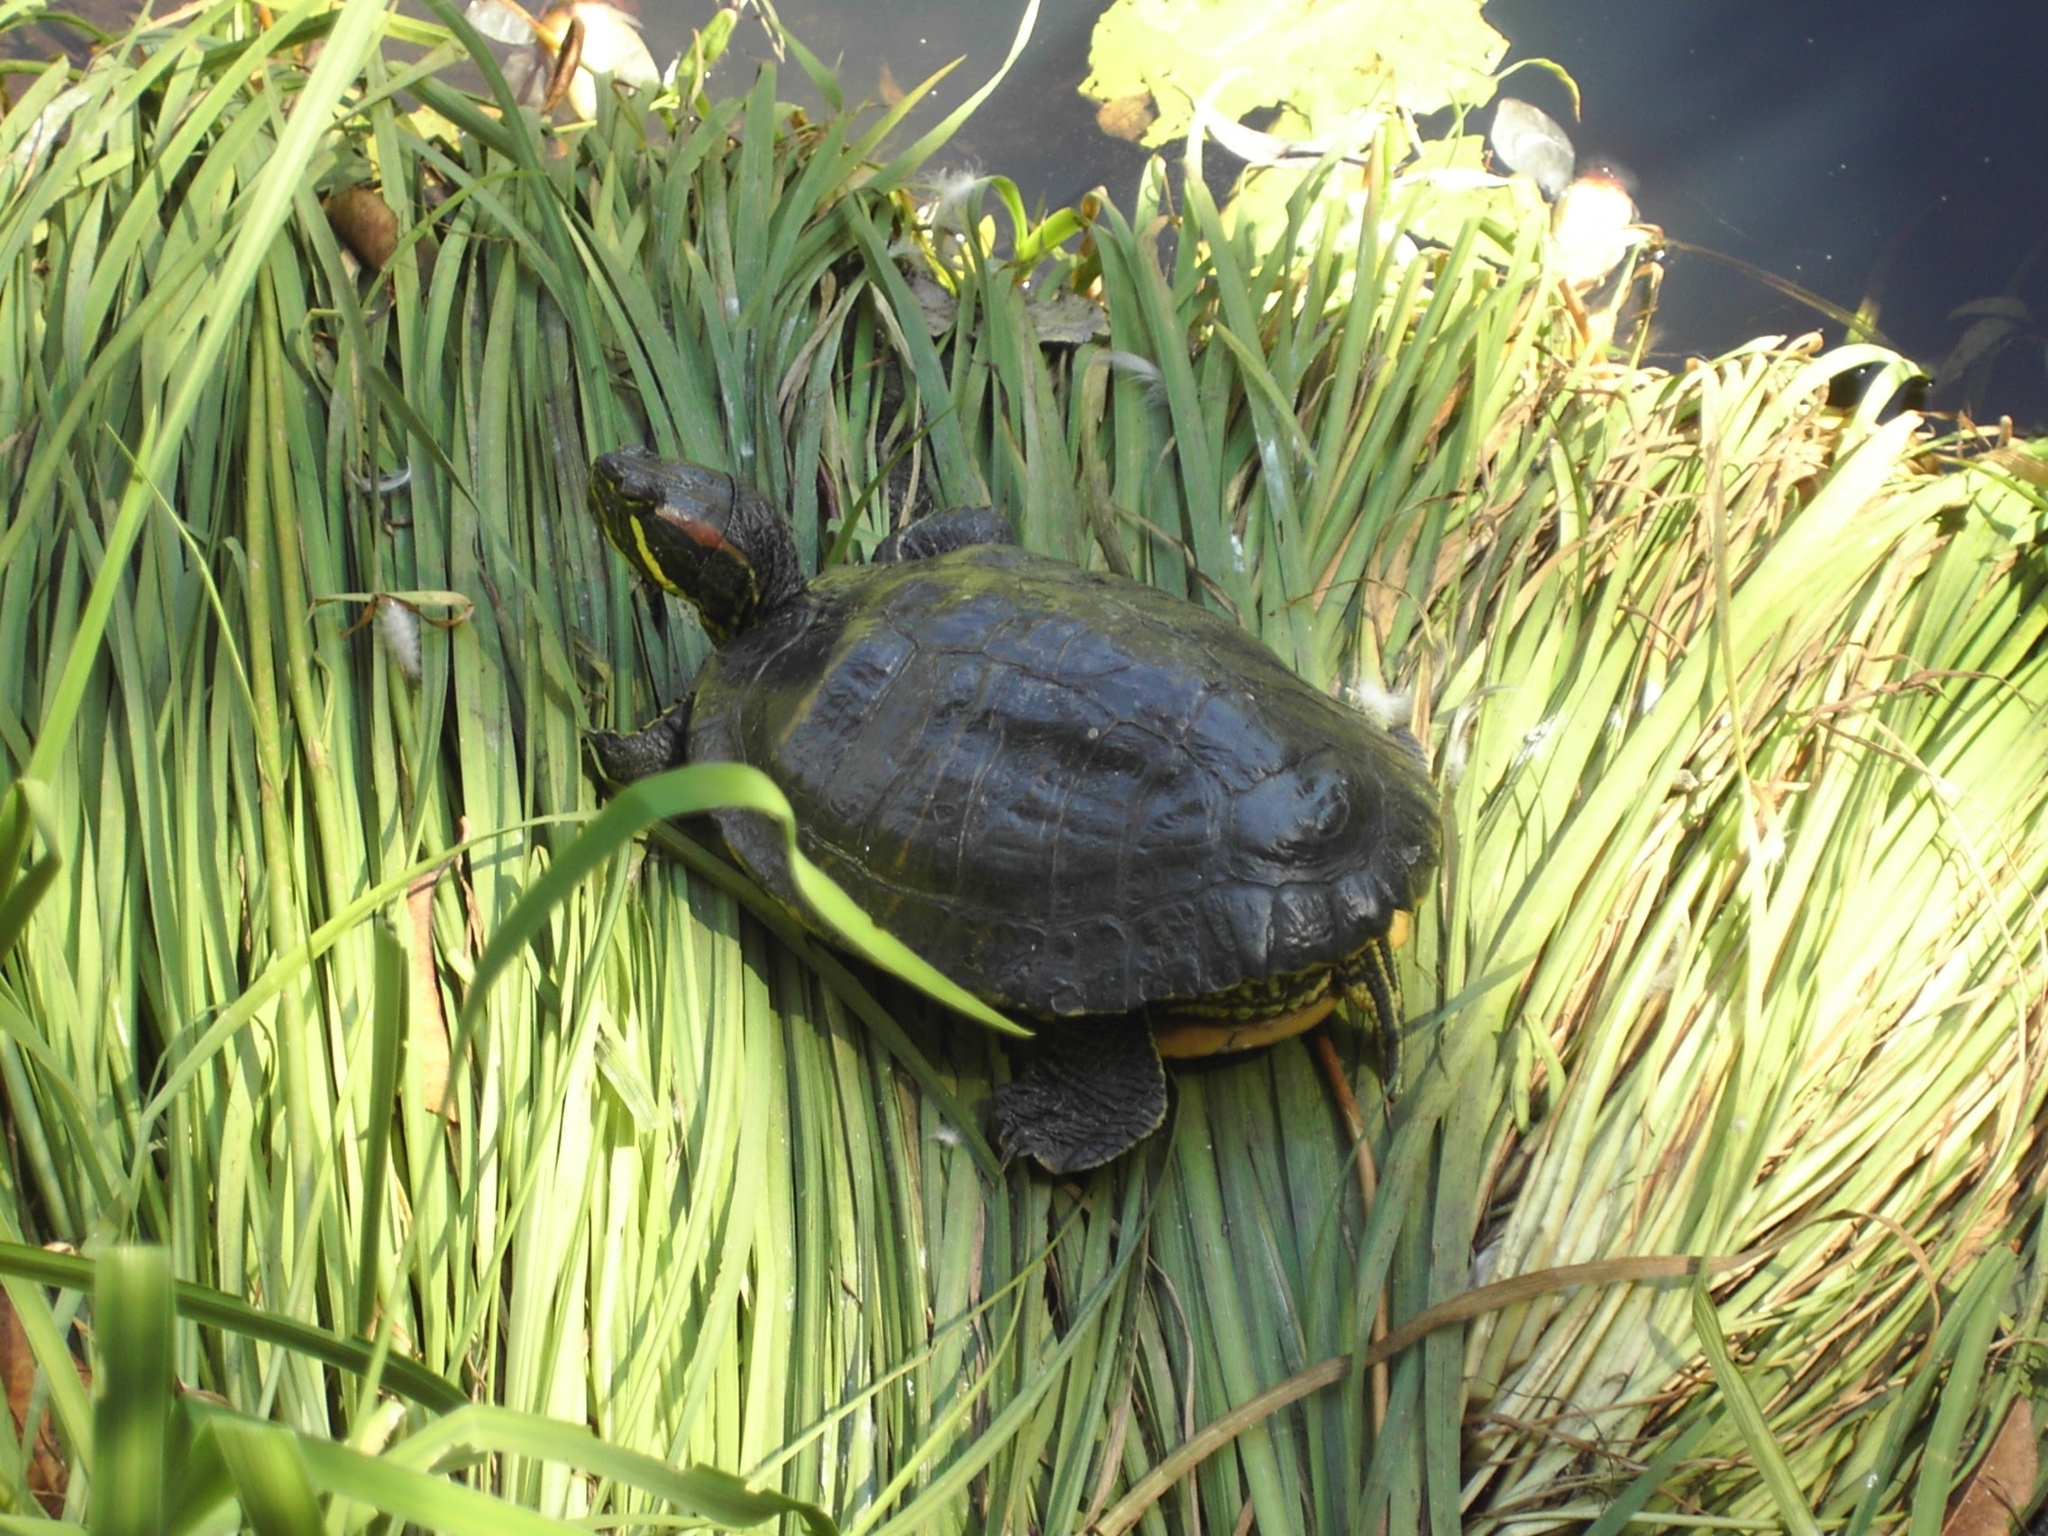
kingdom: Animalia
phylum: Chordata
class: Testudines
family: Emydidae
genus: Trachemys
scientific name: Trachemys scripta
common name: Slider
